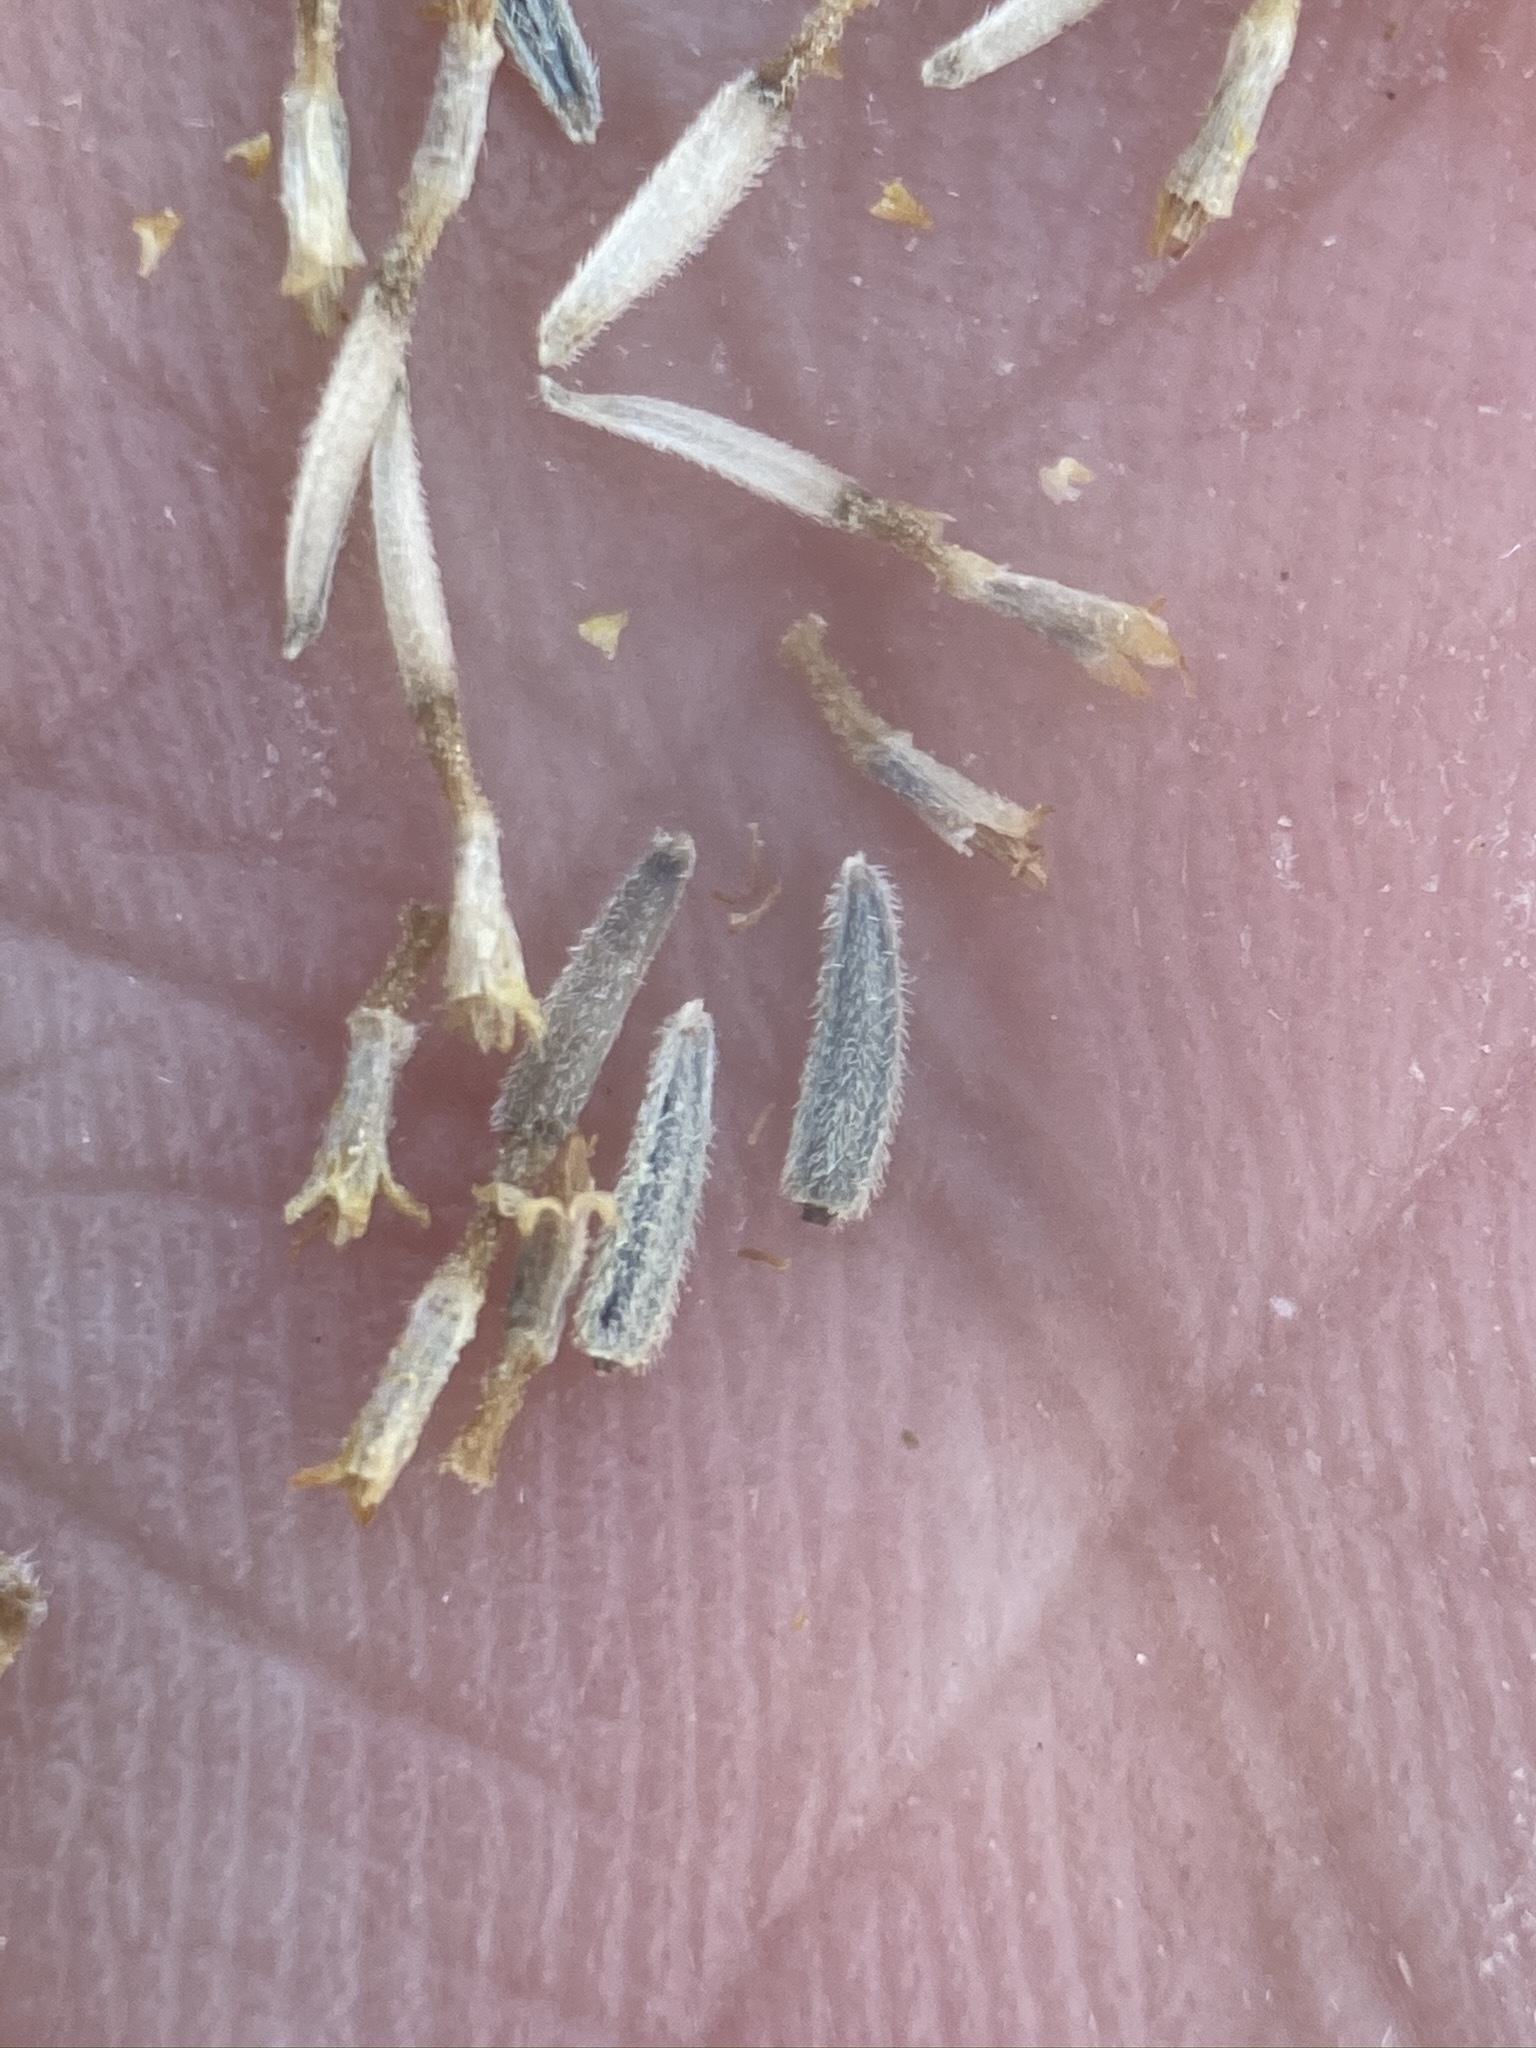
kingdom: Plantae
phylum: Tracheophyta
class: Magnoliopsida
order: Asterales
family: Asteraceae
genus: Laphamia
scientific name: Laphamia megalocephala
